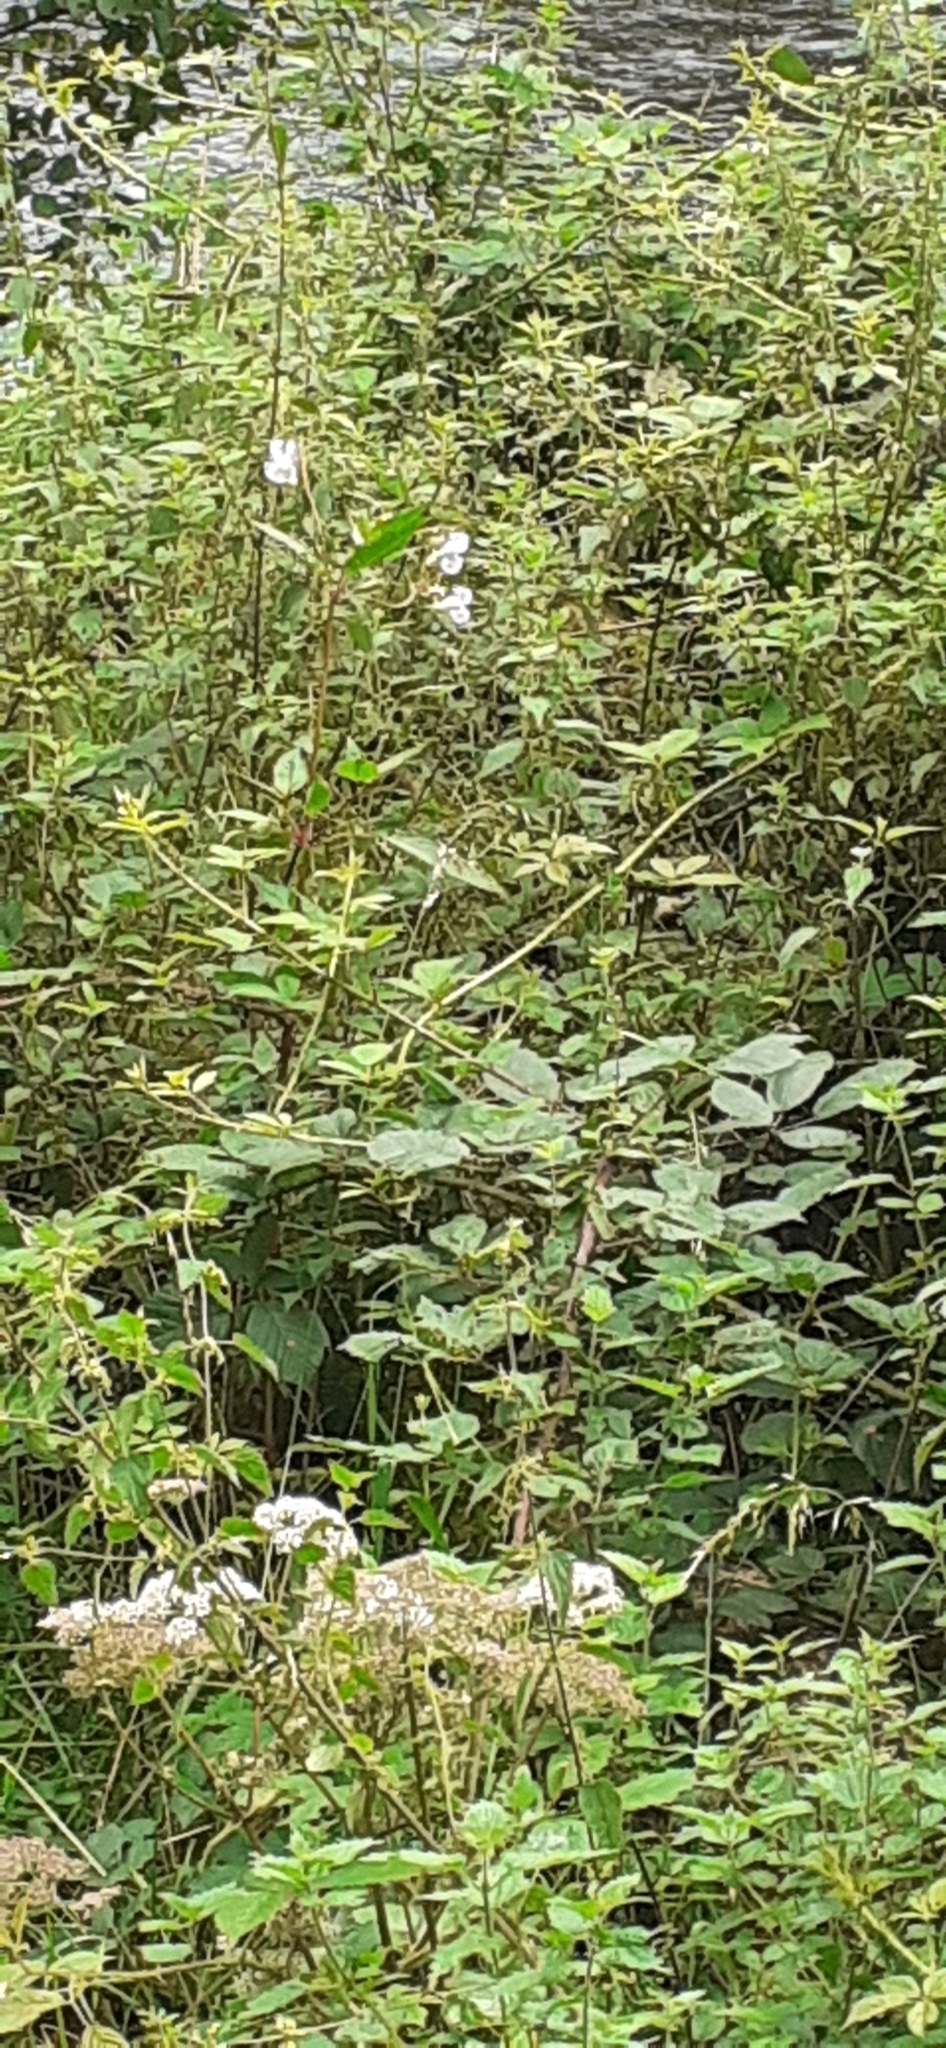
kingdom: Plantae
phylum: Tracheophyta
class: Magnoliopsida
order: Ericales
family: Balsaminaceae
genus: Impatiens
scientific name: Impatiens glandulifera
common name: Himalayan balsam
